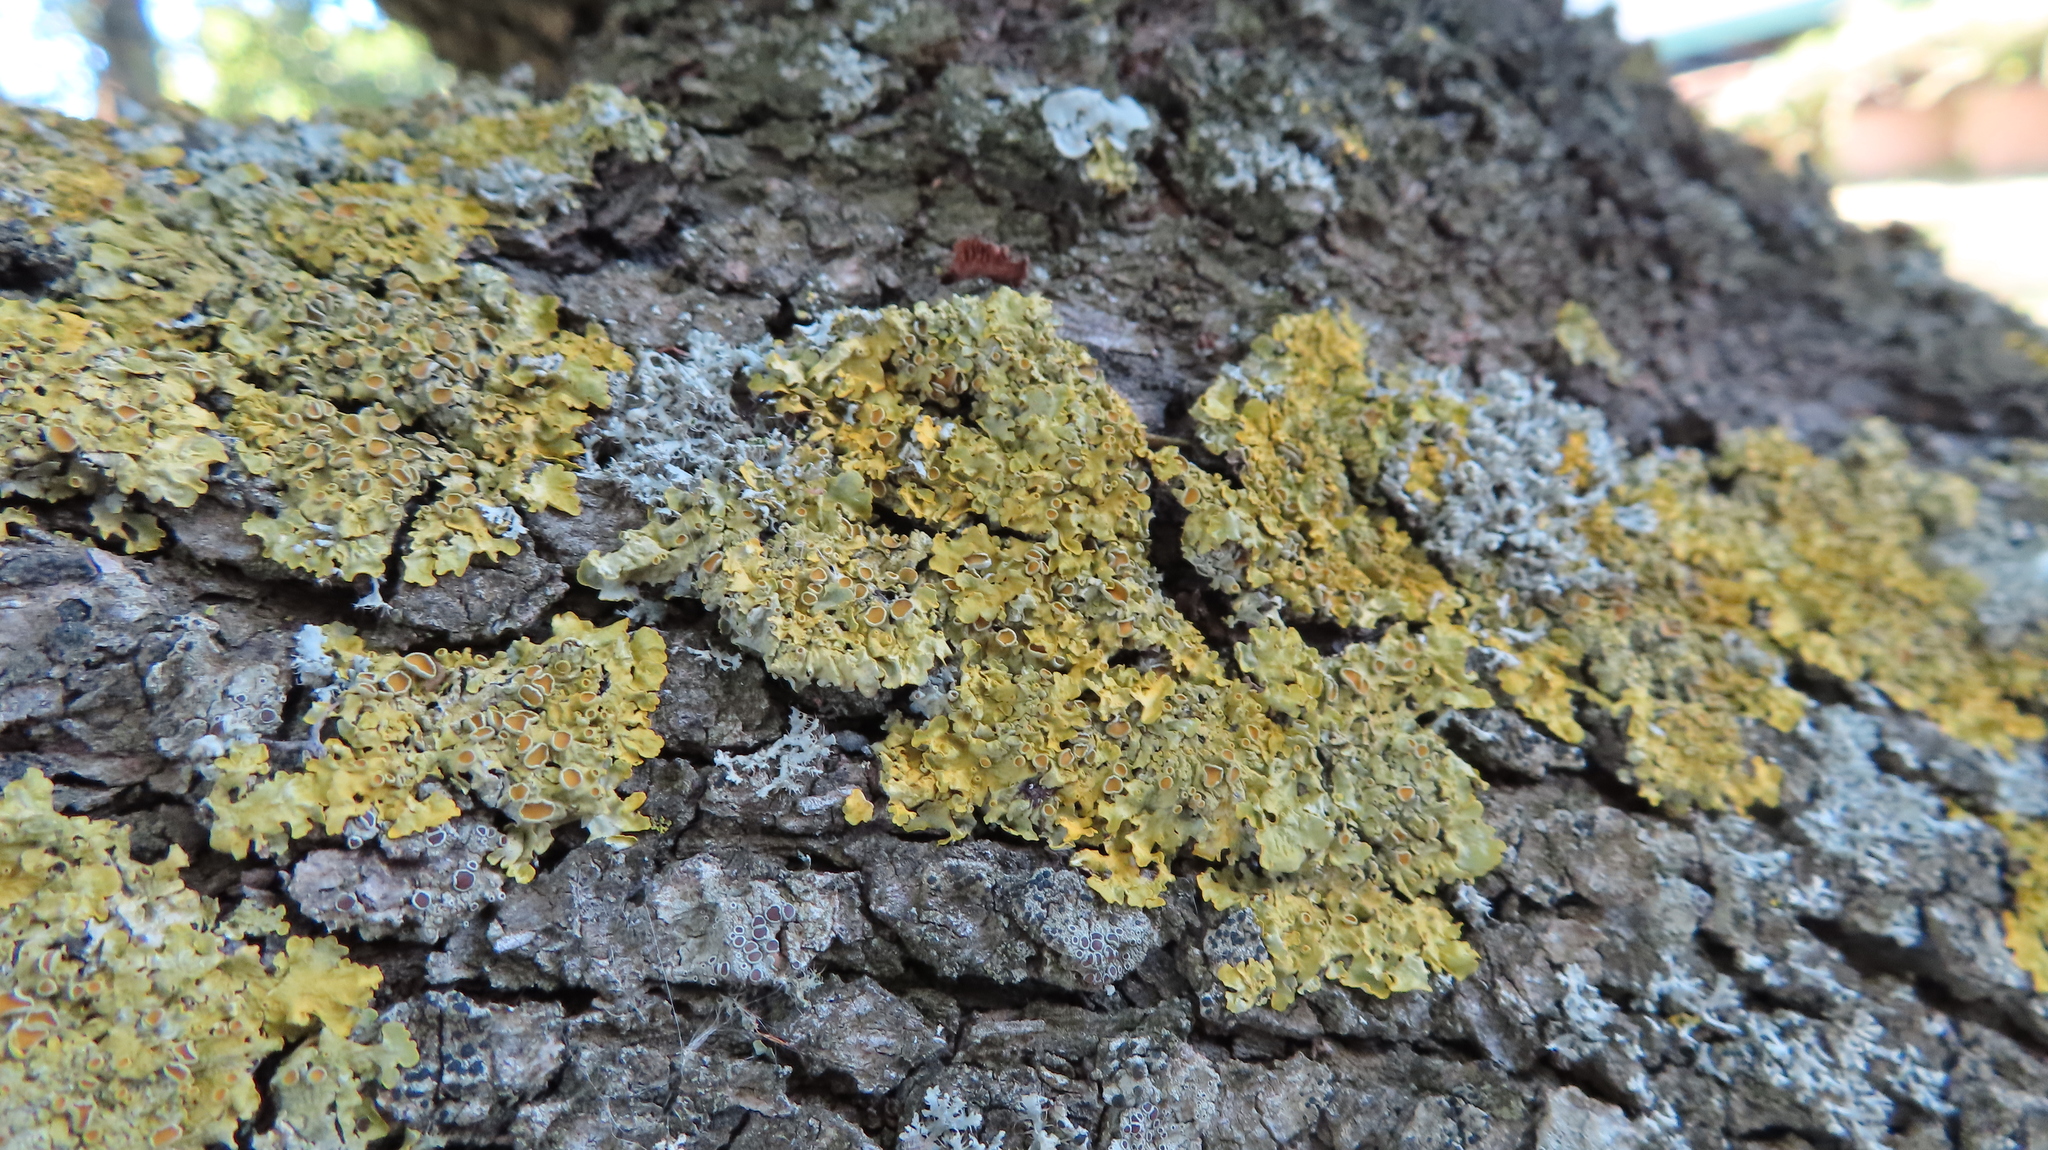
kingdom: Fungi
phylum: Ascomycota
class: Lecanoromycetes
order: Teloschistales
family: Teloschistaceae
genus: Xanthoria
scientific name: Xanthoria parietina
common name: Common orange lichen
